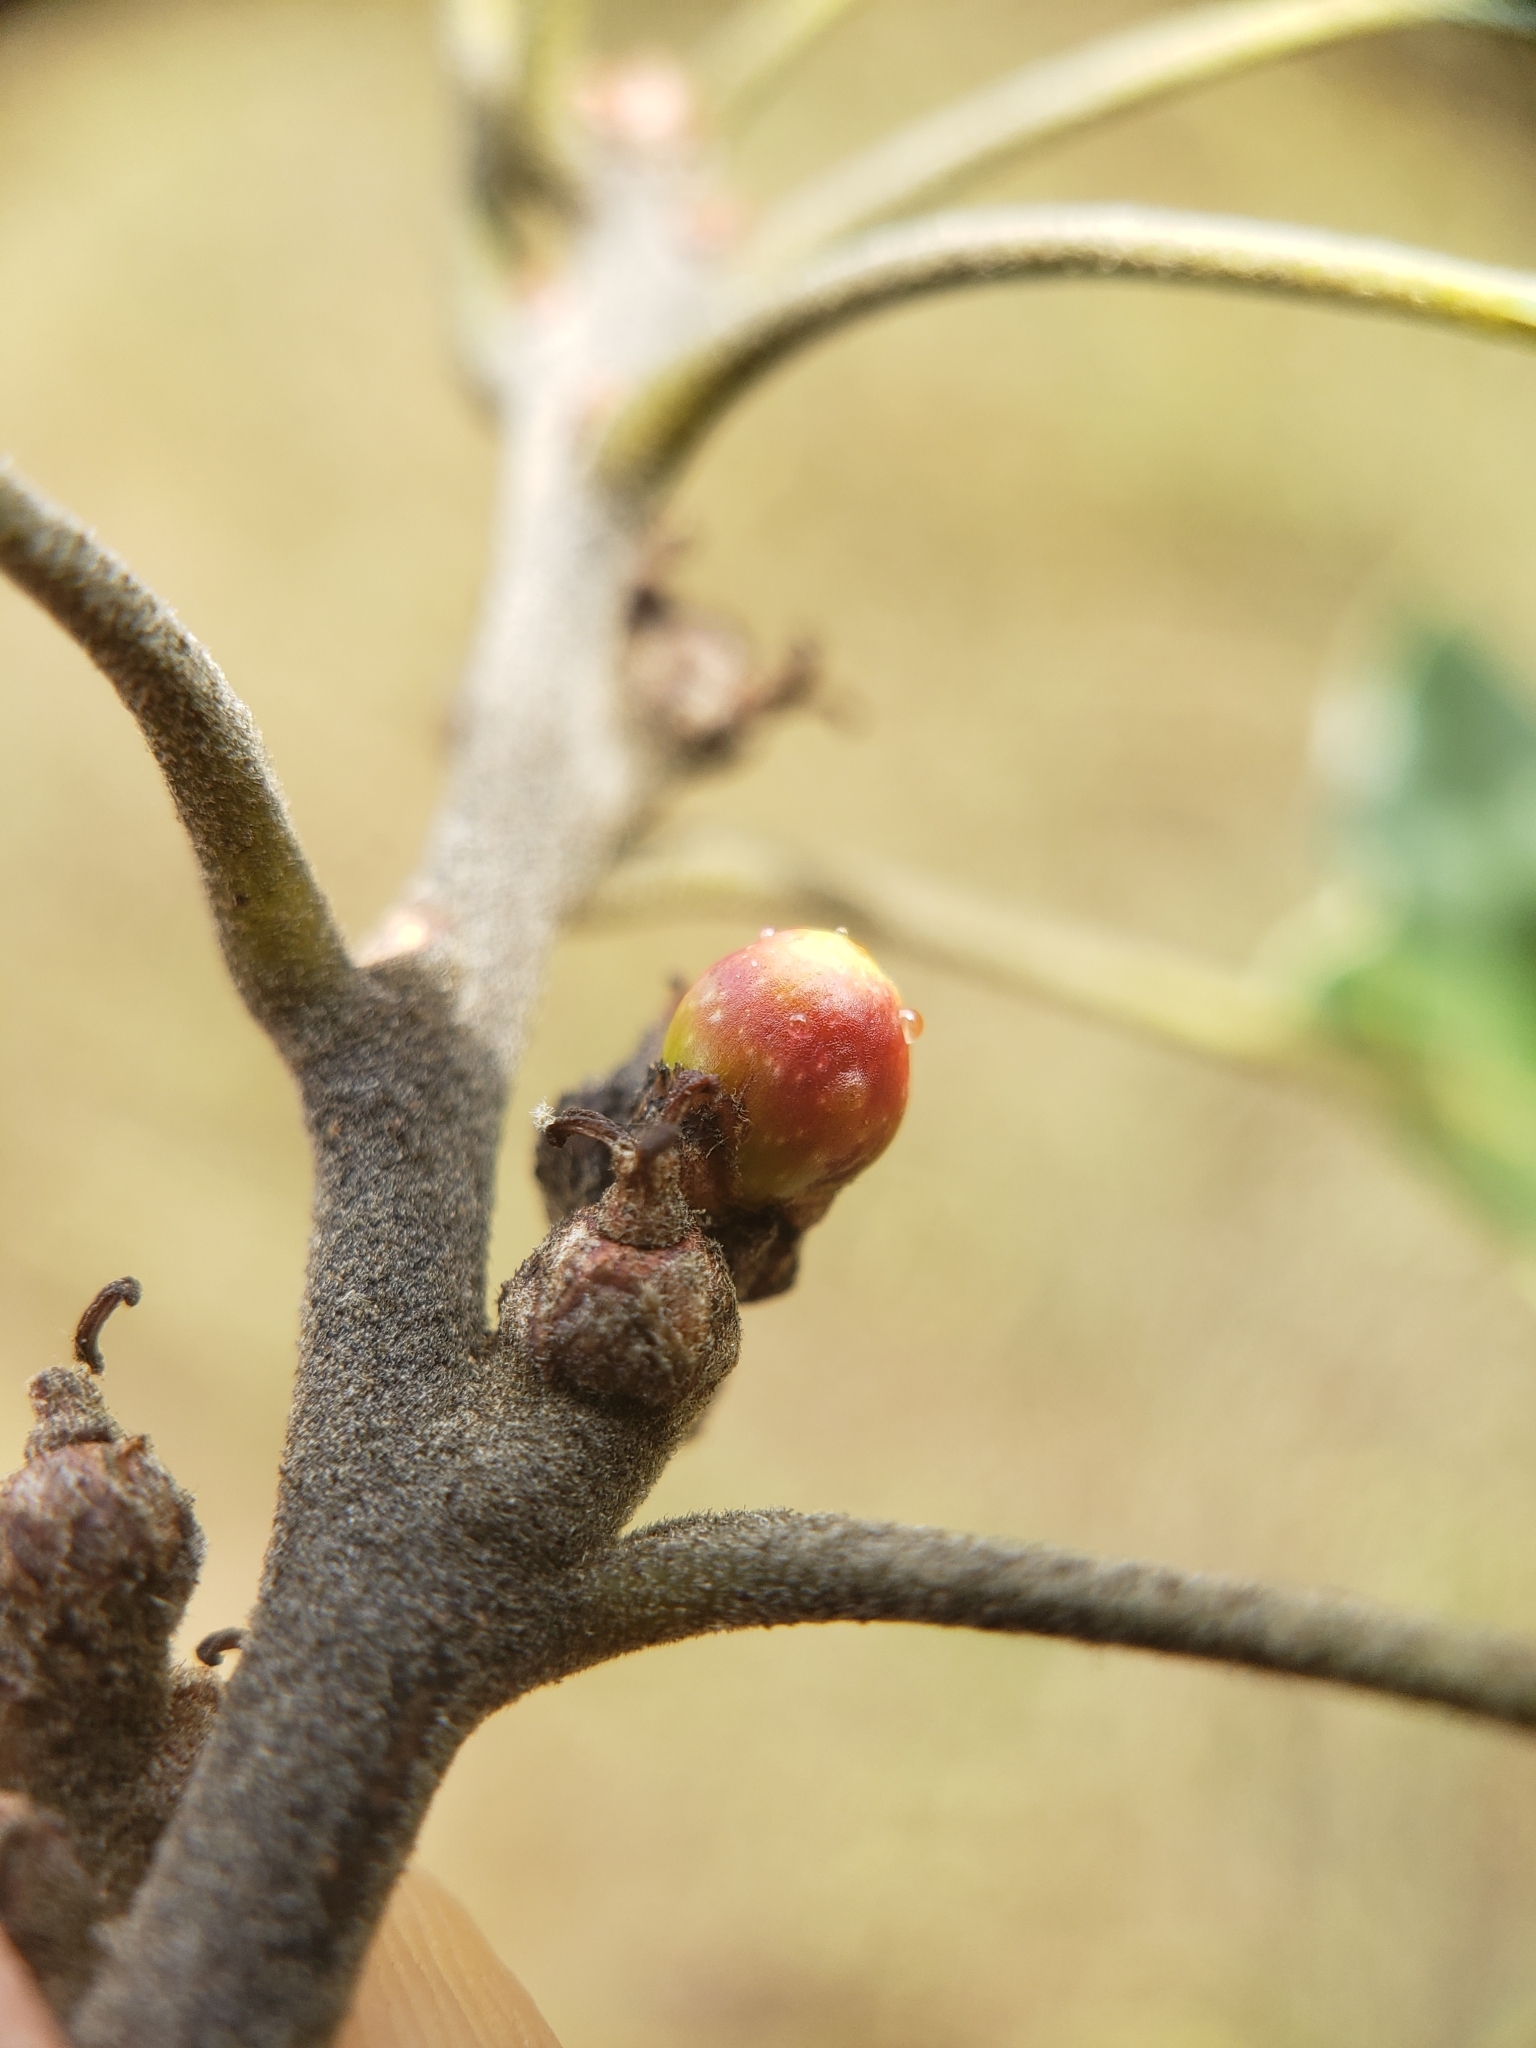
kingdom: Animalia
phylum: Arthropoda
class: Insecta
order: Hymenoptera
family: Cynipidae
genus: Callirhytis
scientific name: Callirhytis
